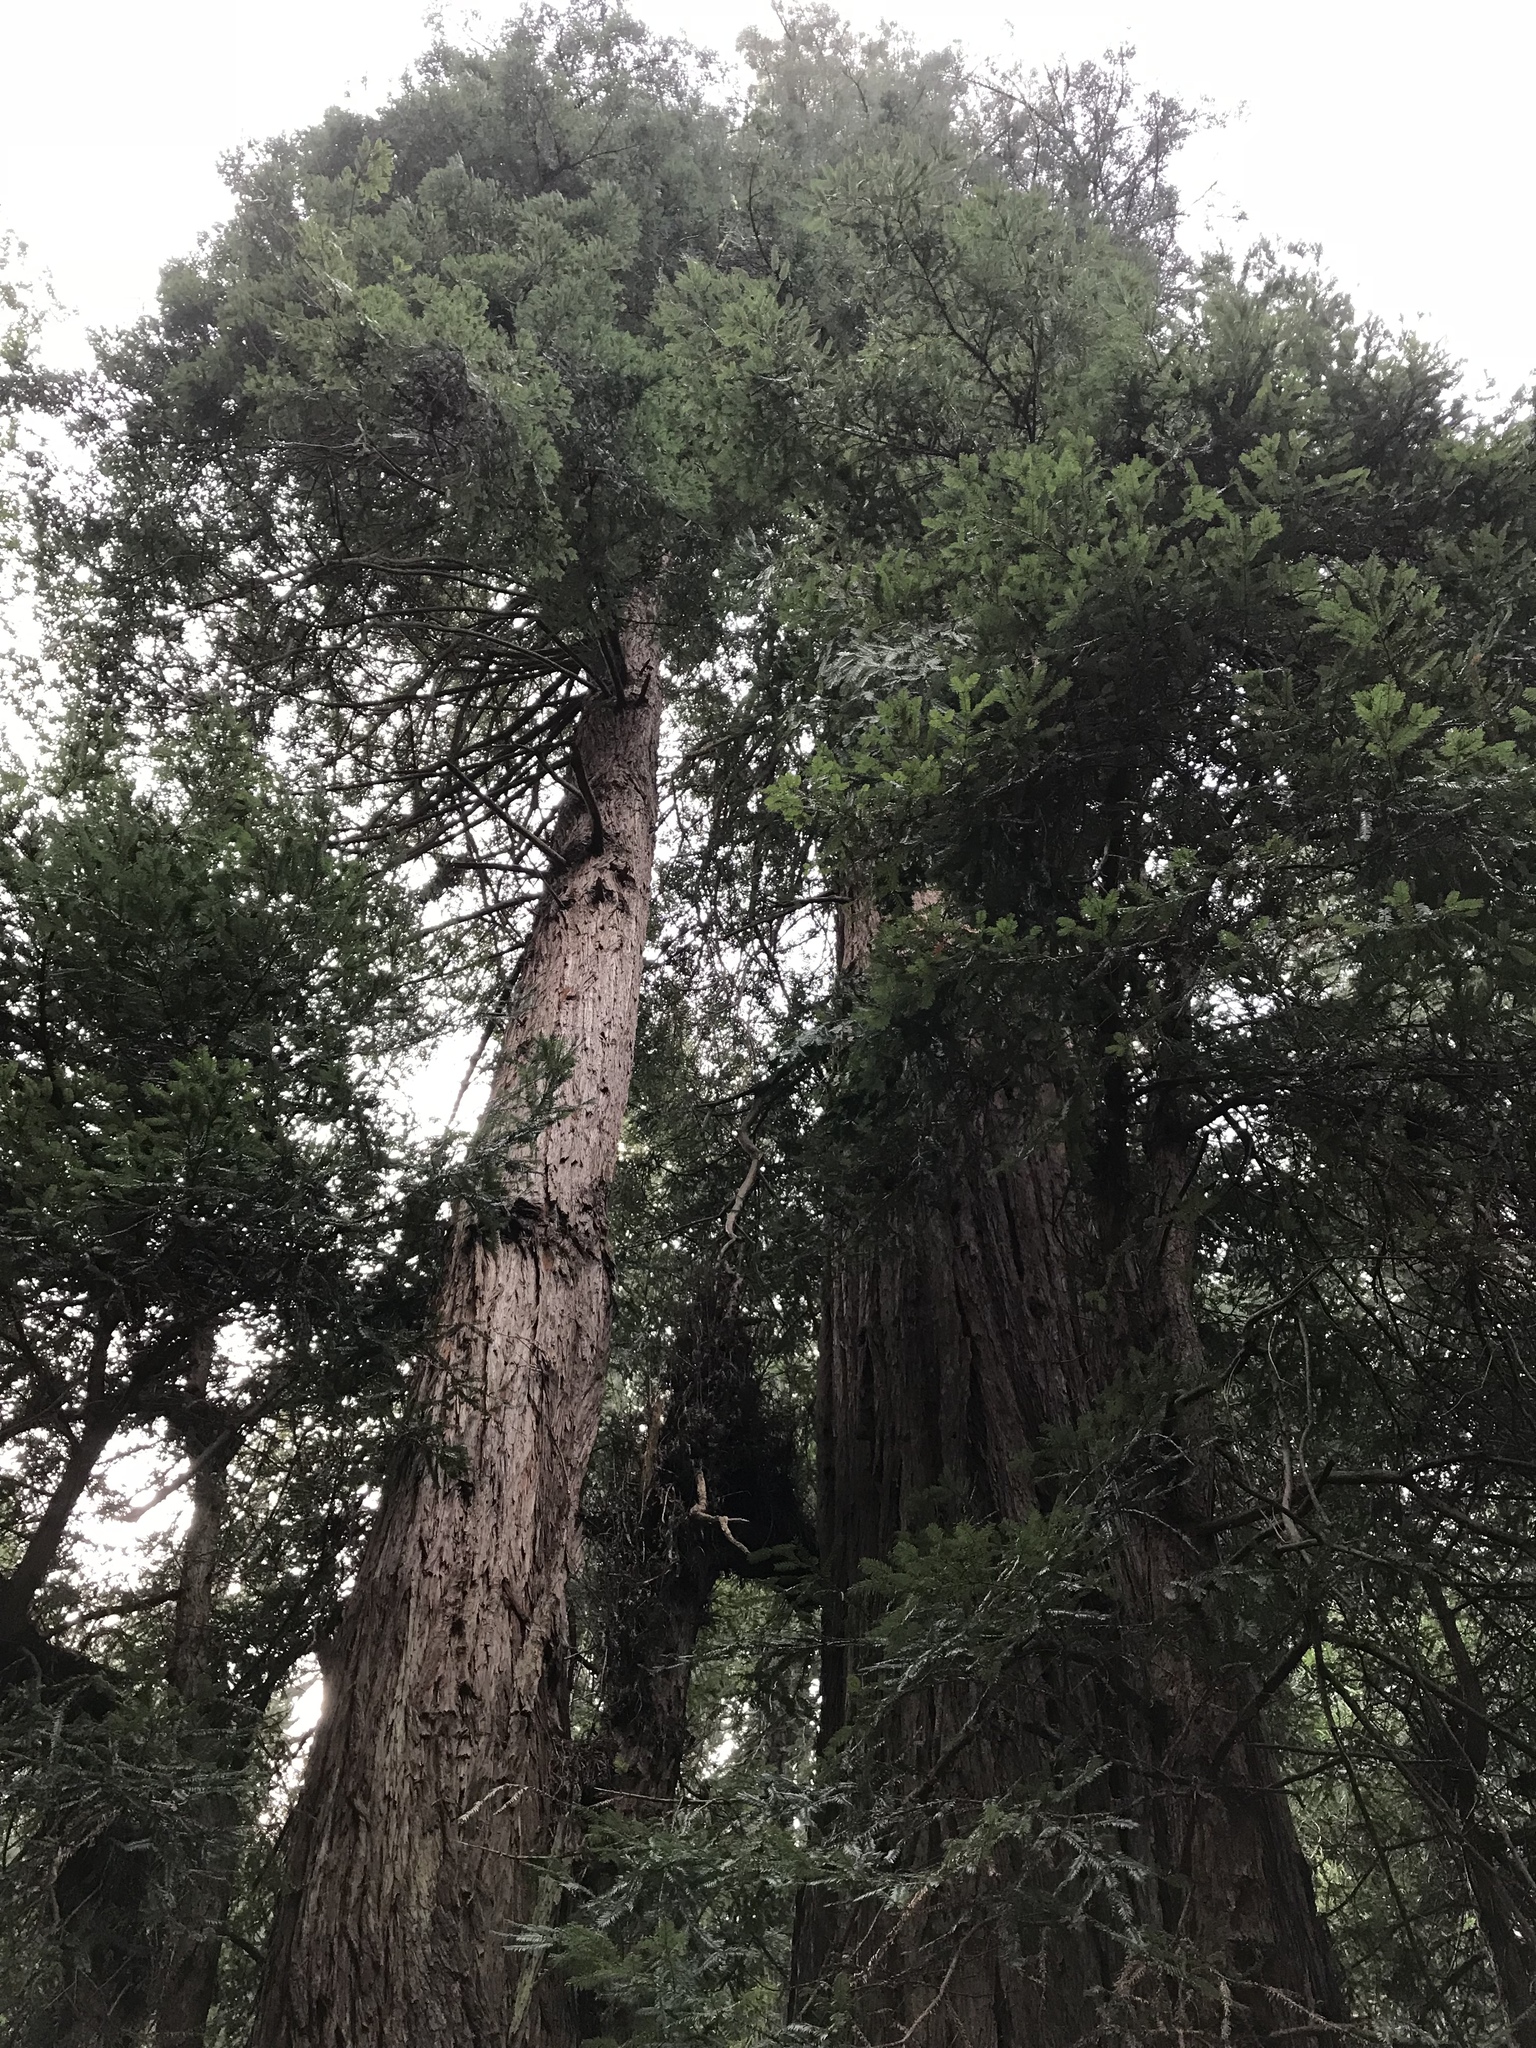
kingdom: Plantae
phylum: Tracheophyta
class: Pinopsida
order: Pinales
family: Cupressaceae
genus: Sequoia
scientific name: Sequoia sempervirens
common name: Coast redwood
